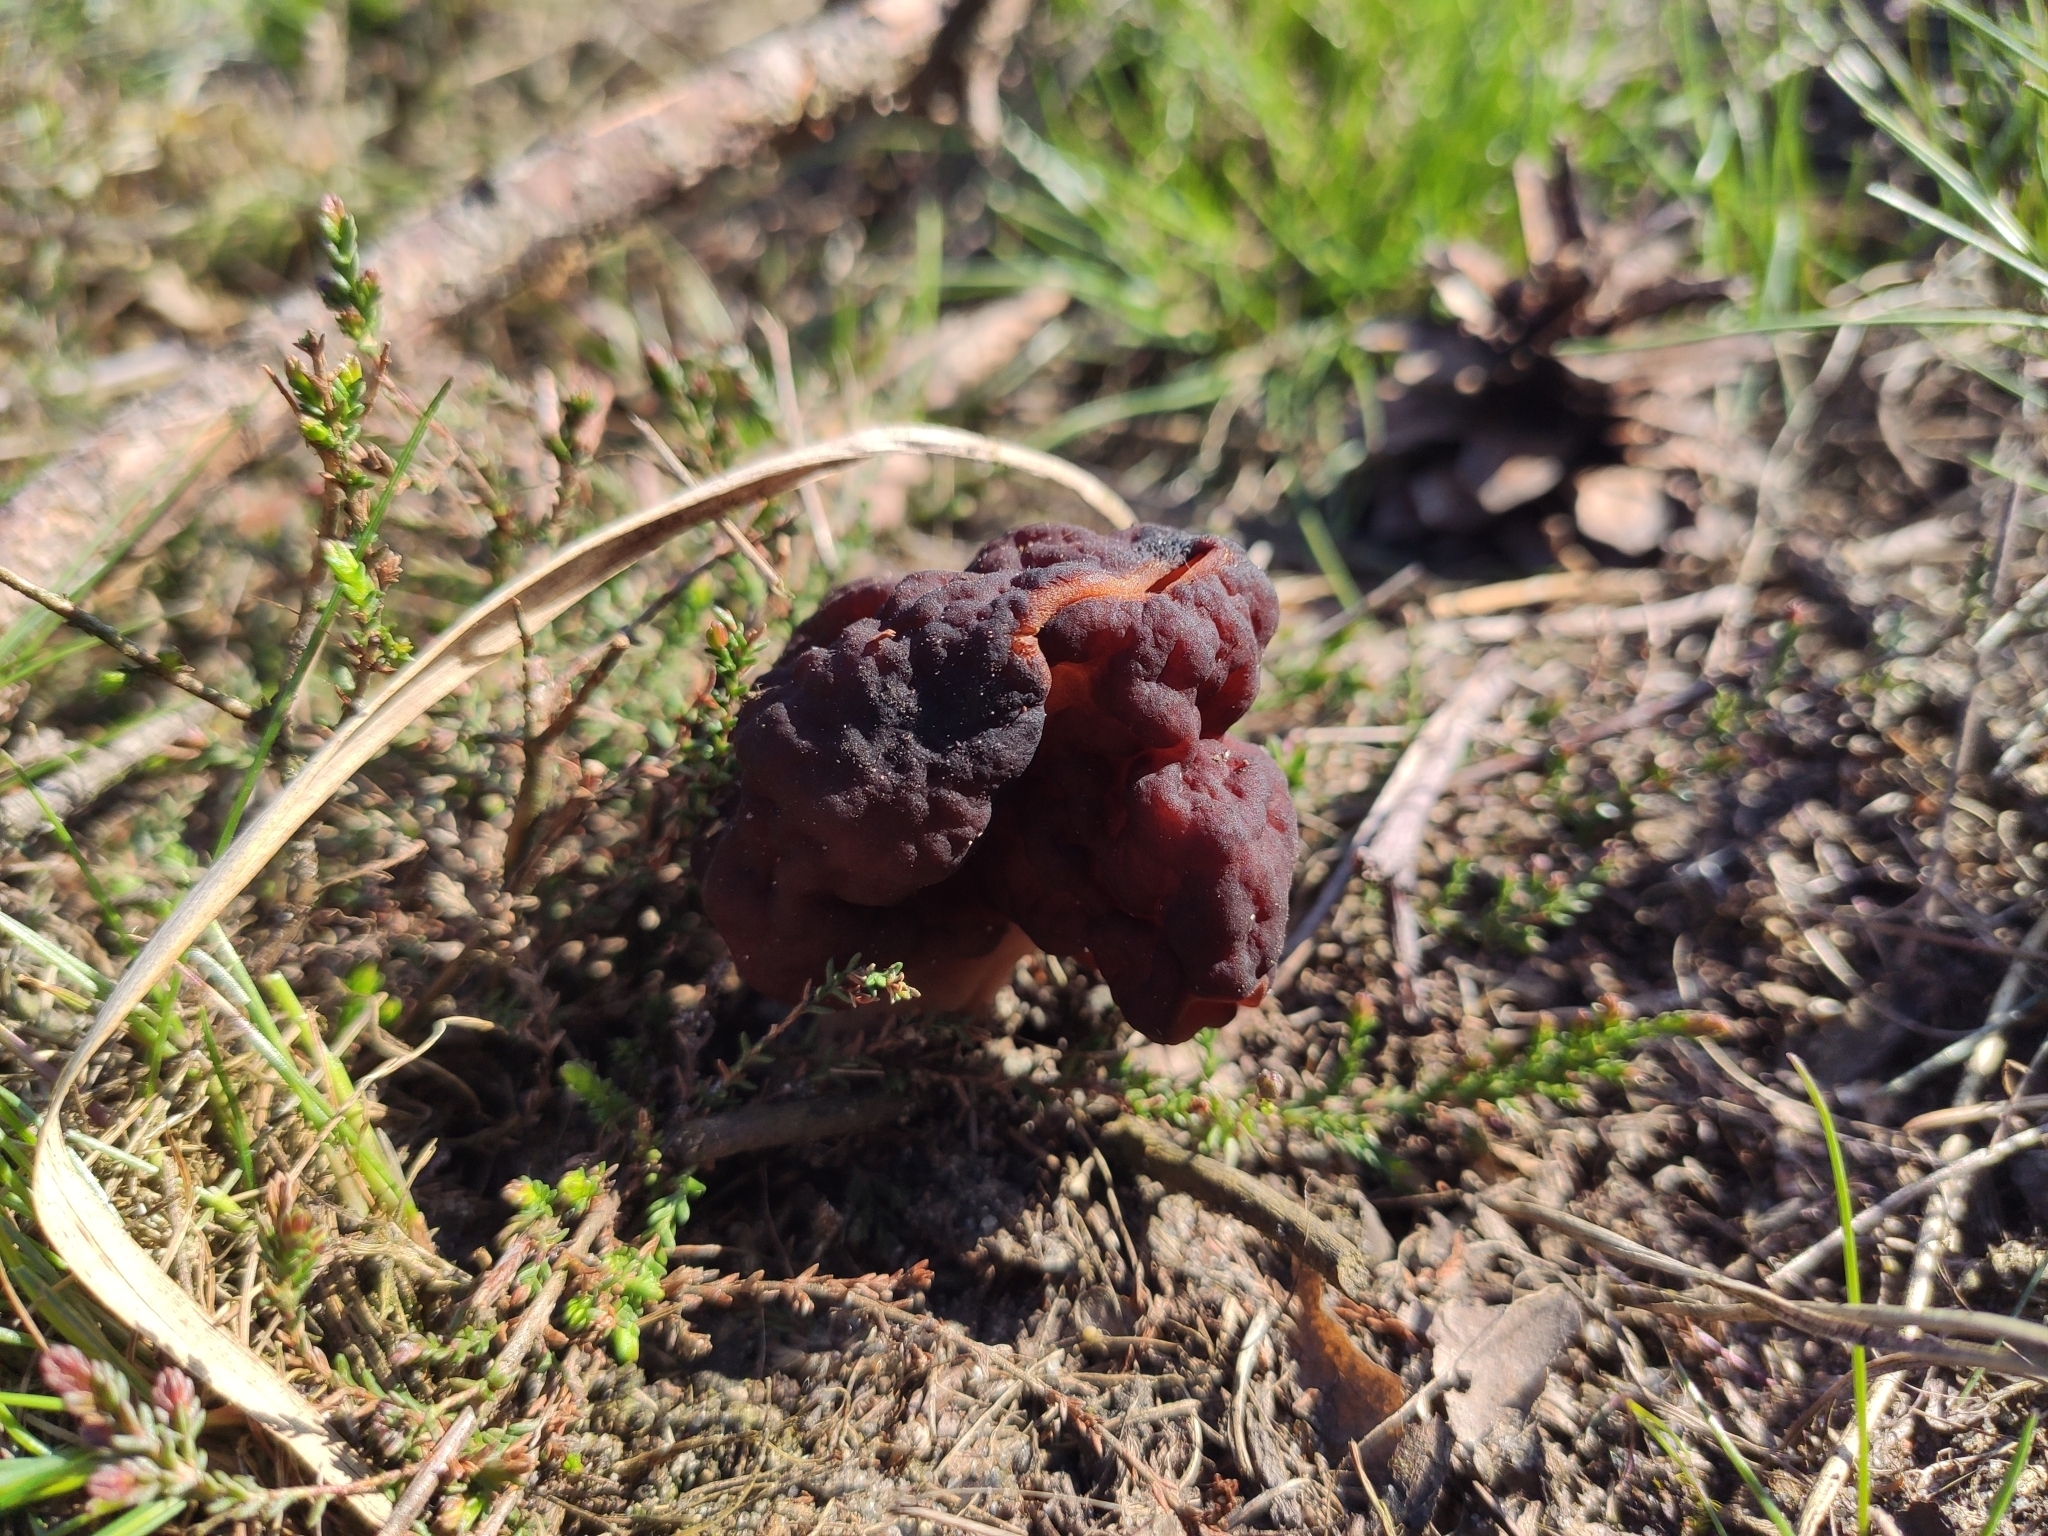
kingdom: Fungi
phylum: Ascomycota
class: Pezizomycetes
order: Pezizales
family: Discinaceae
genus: Gyromitra
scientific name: Gyromitra esculenta
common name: False morel
